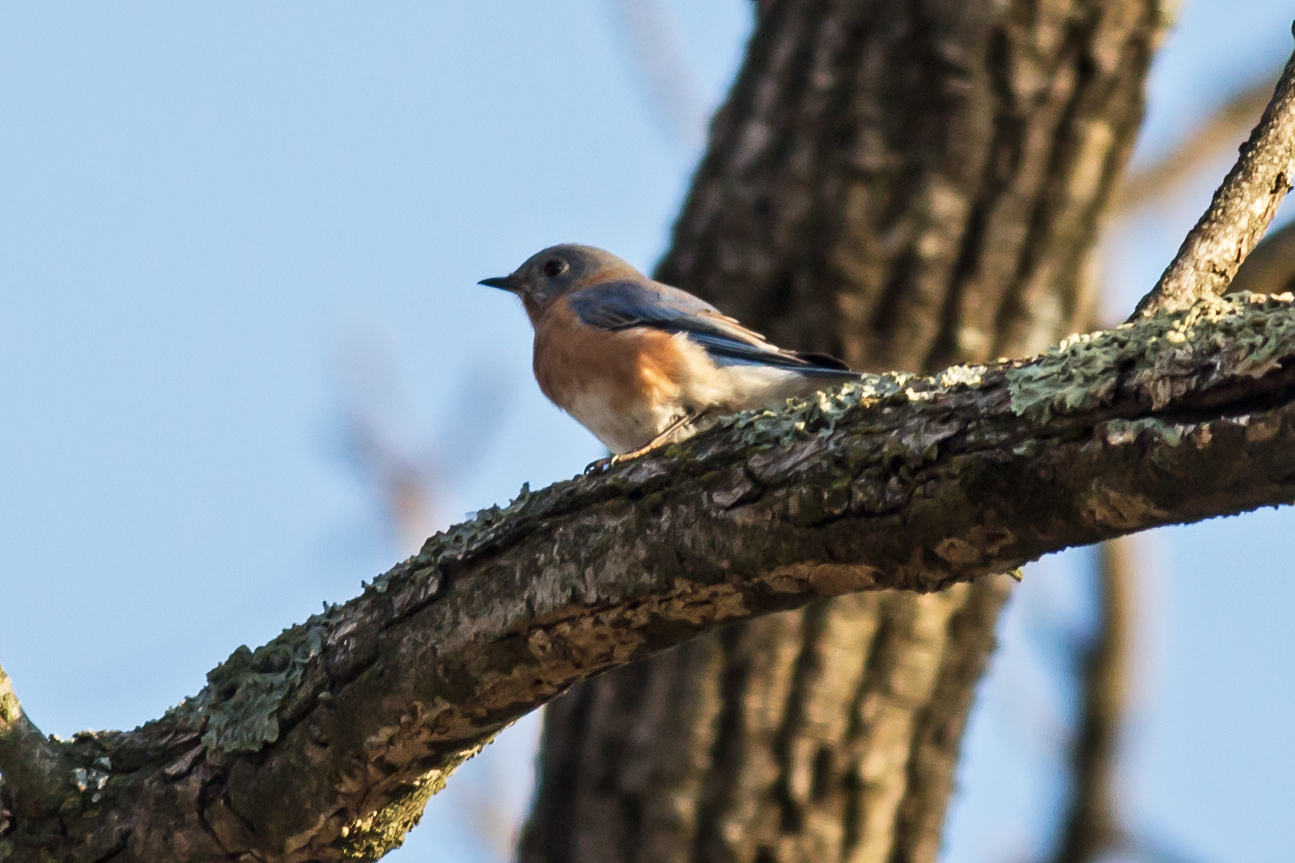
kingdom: Animalia
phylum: Chordata
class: Aves
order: Passeriformes
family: Turdidae
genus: Sialia
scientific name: Sialia sialis
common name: Eastern bluebird
